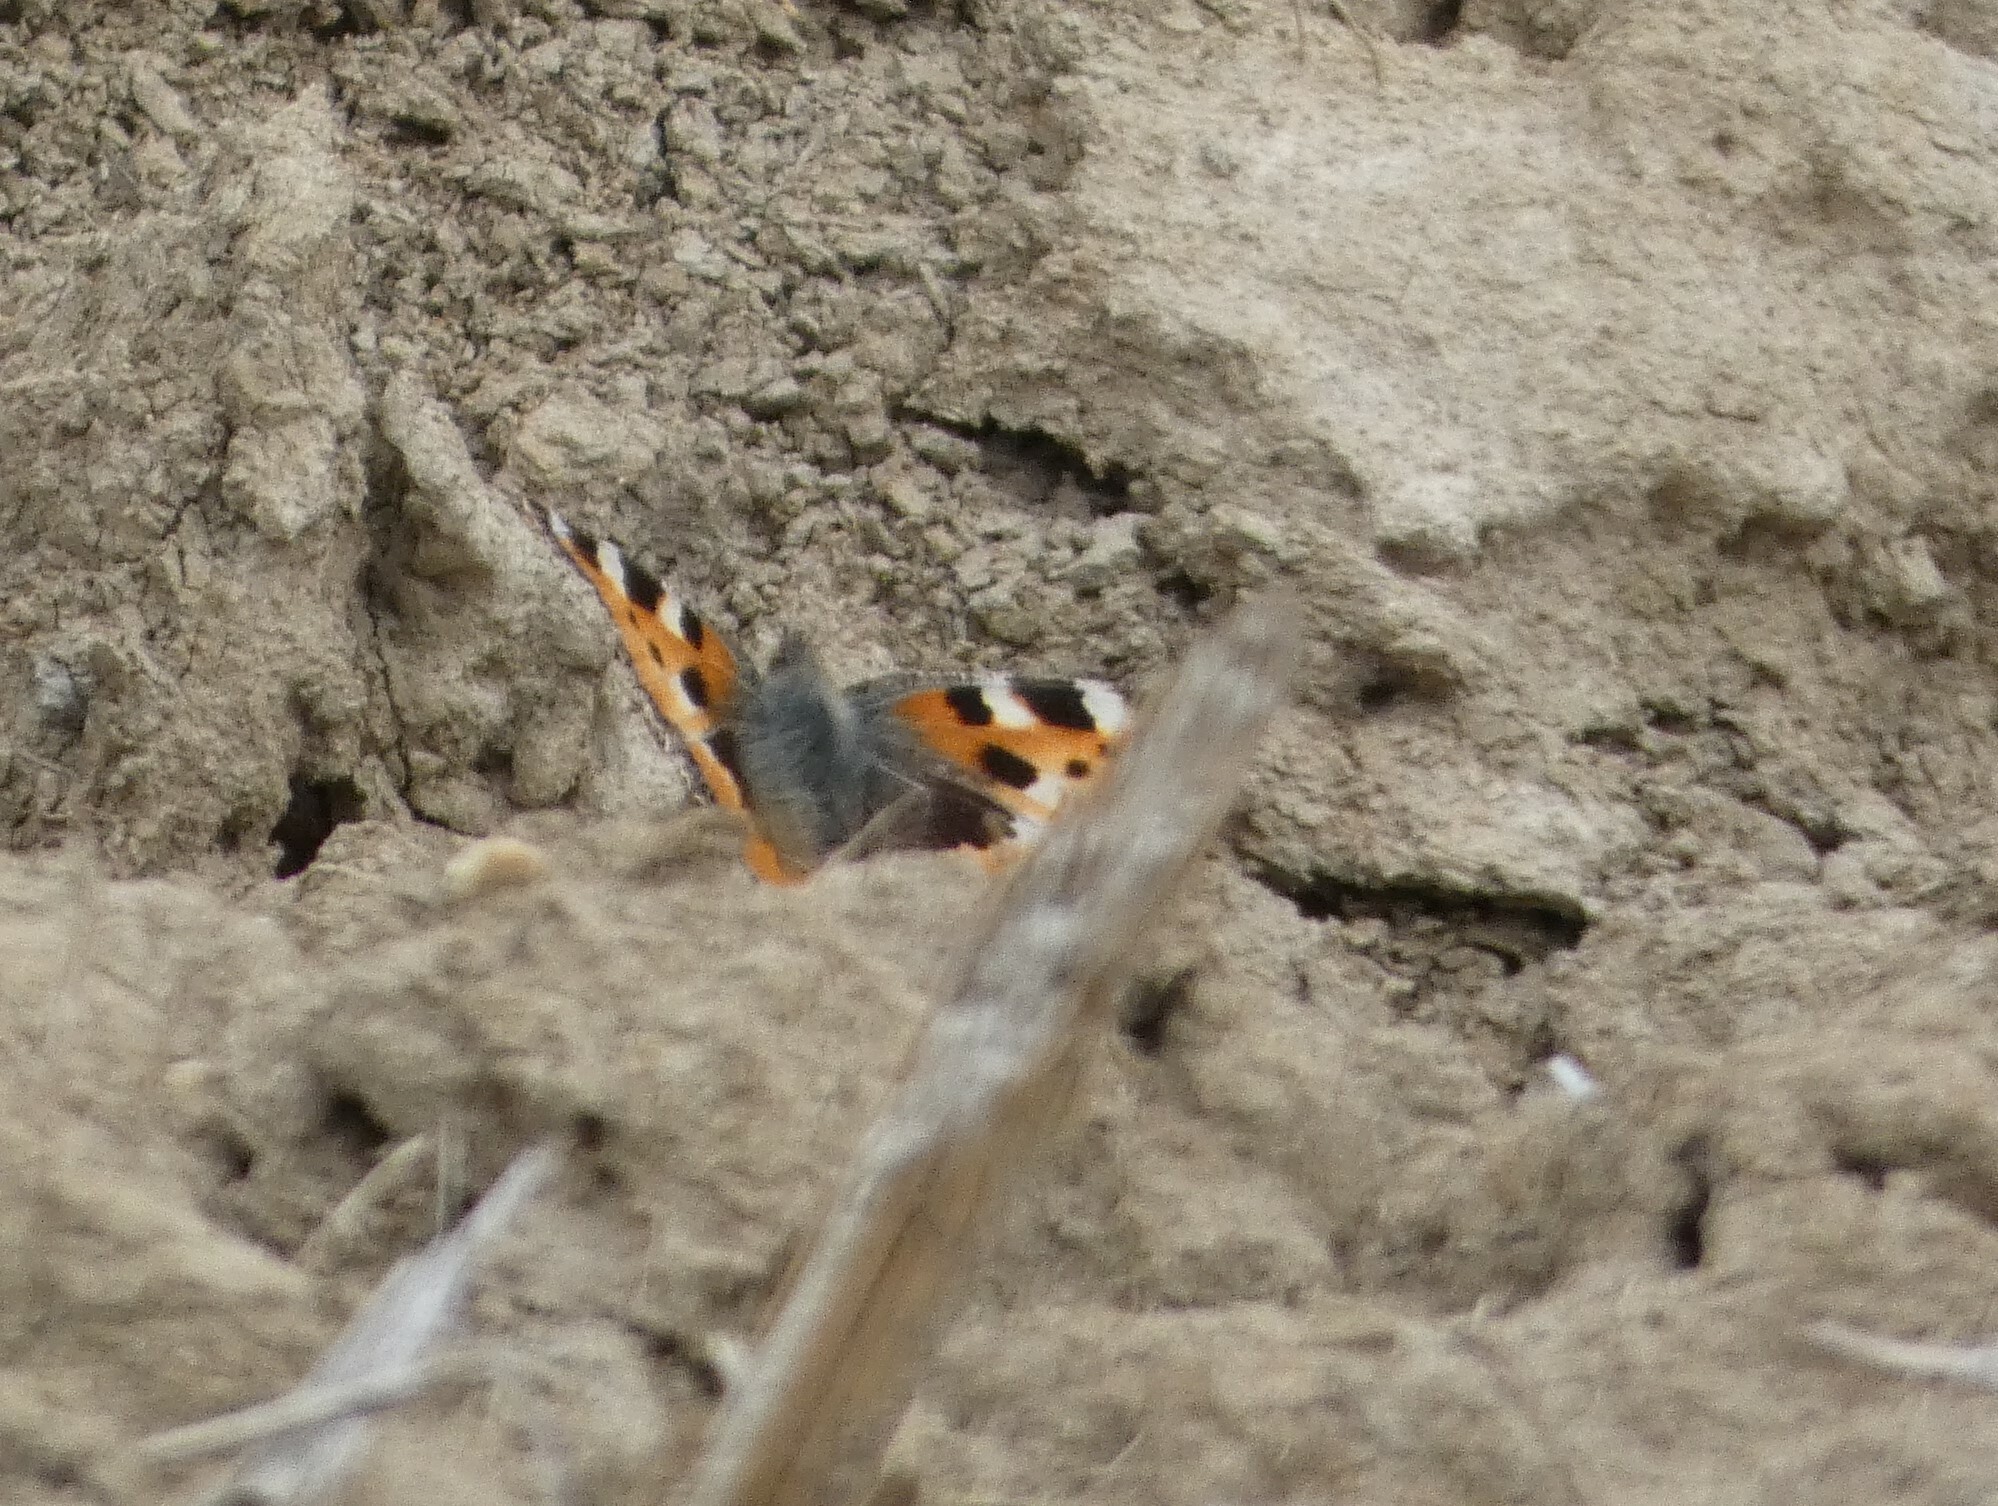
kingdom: Animalia
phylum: Arthropoda
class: Insecta
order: Lepidoptera
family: Nymphalidae
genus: Aglais
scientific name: Aglais urticae
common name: Small tortoiseshell
